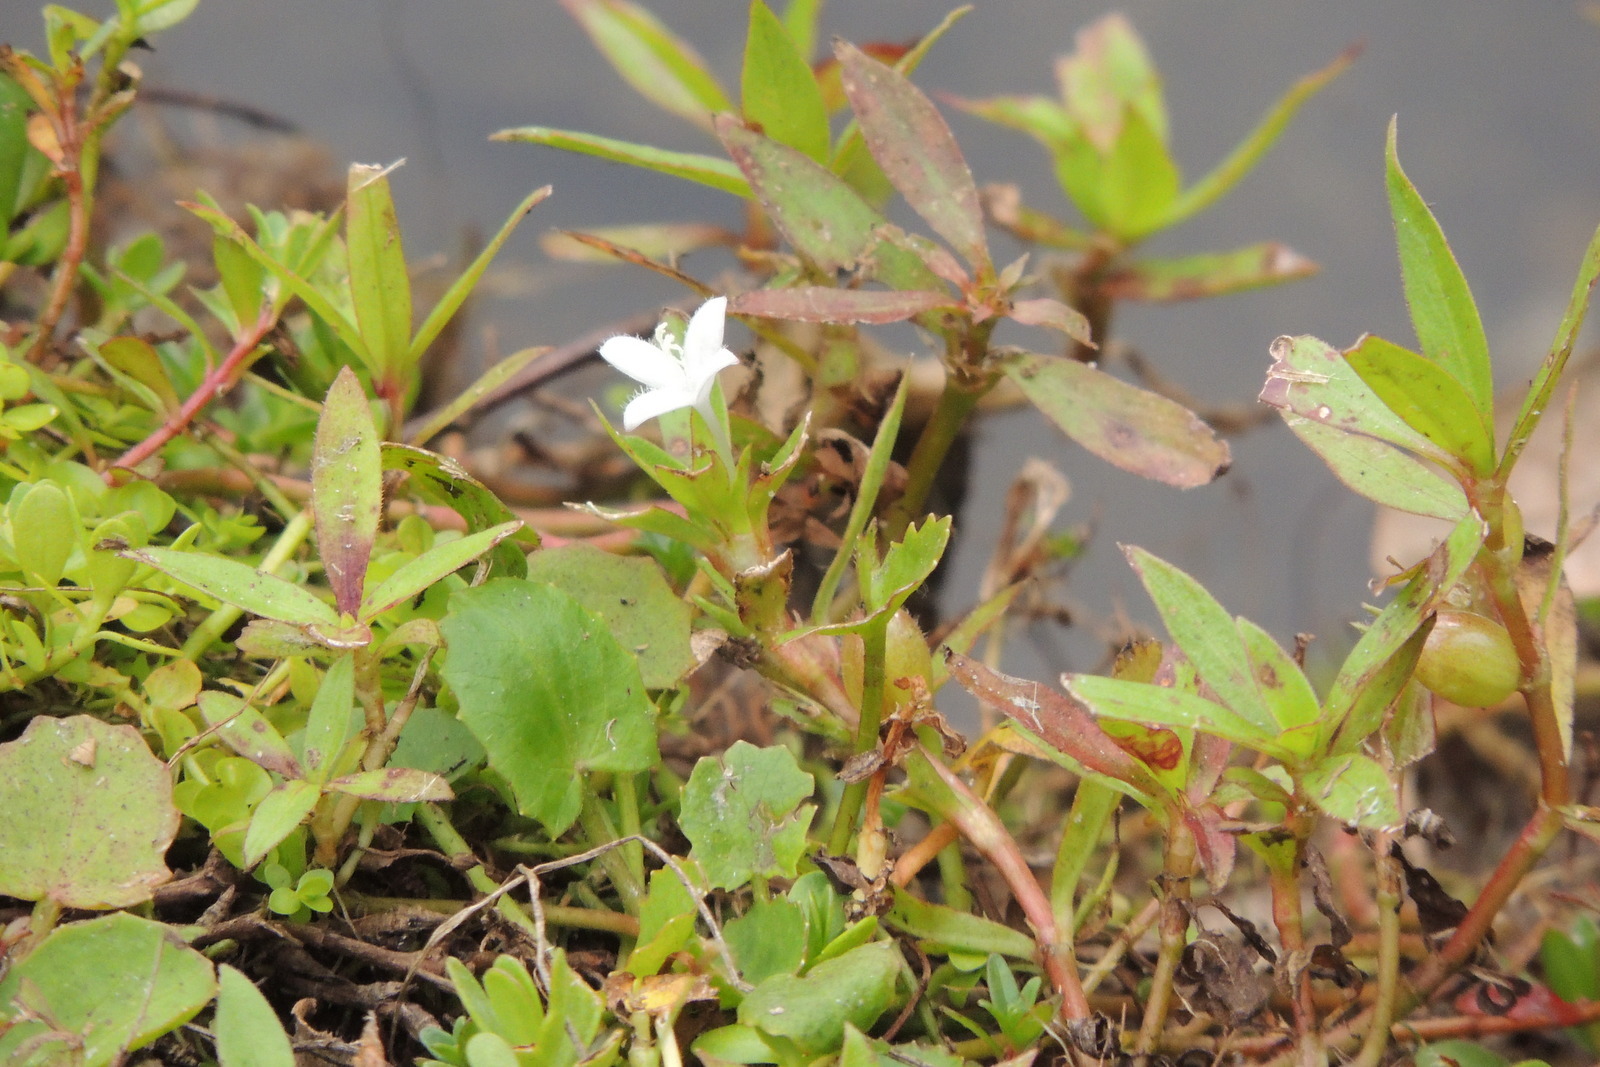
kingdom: Plantae
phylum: Tracheophyta
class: Magnoliopsida
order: Gentianales
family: Rubiaceae
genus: Diodia
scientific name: Diodia virginiana
